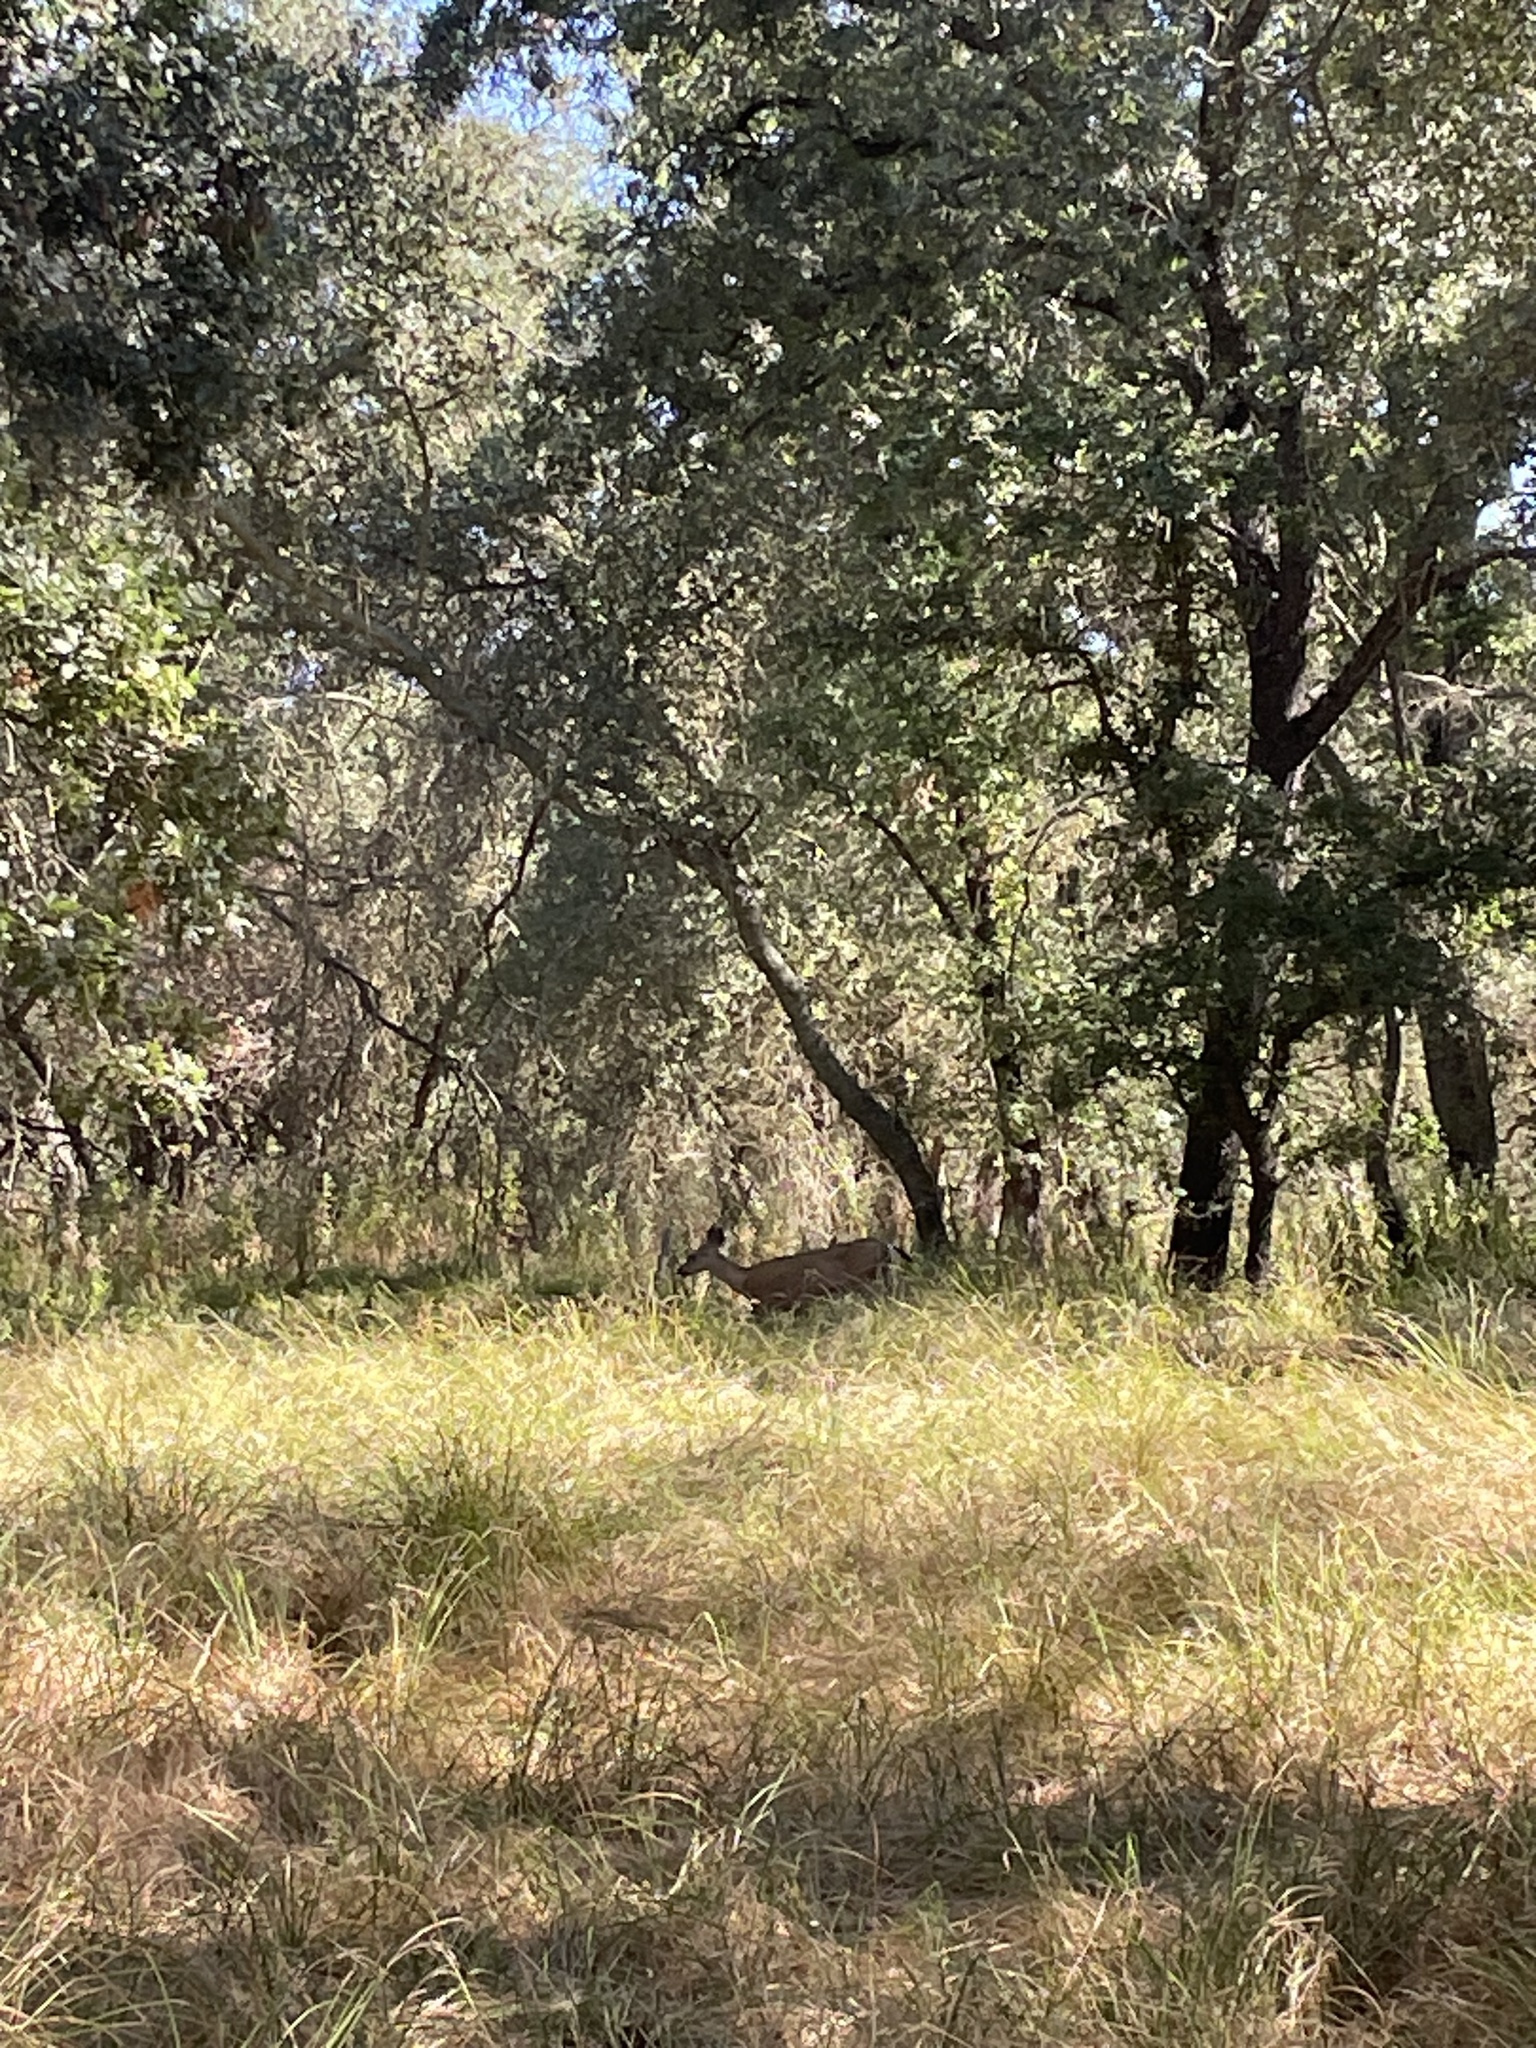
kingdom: Animalia
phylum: Chordata
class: Mammalia
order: Artiodactyla
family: Cervidae
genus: Odocoileus
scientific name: Odocoileus hemionus
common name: Mule deer
